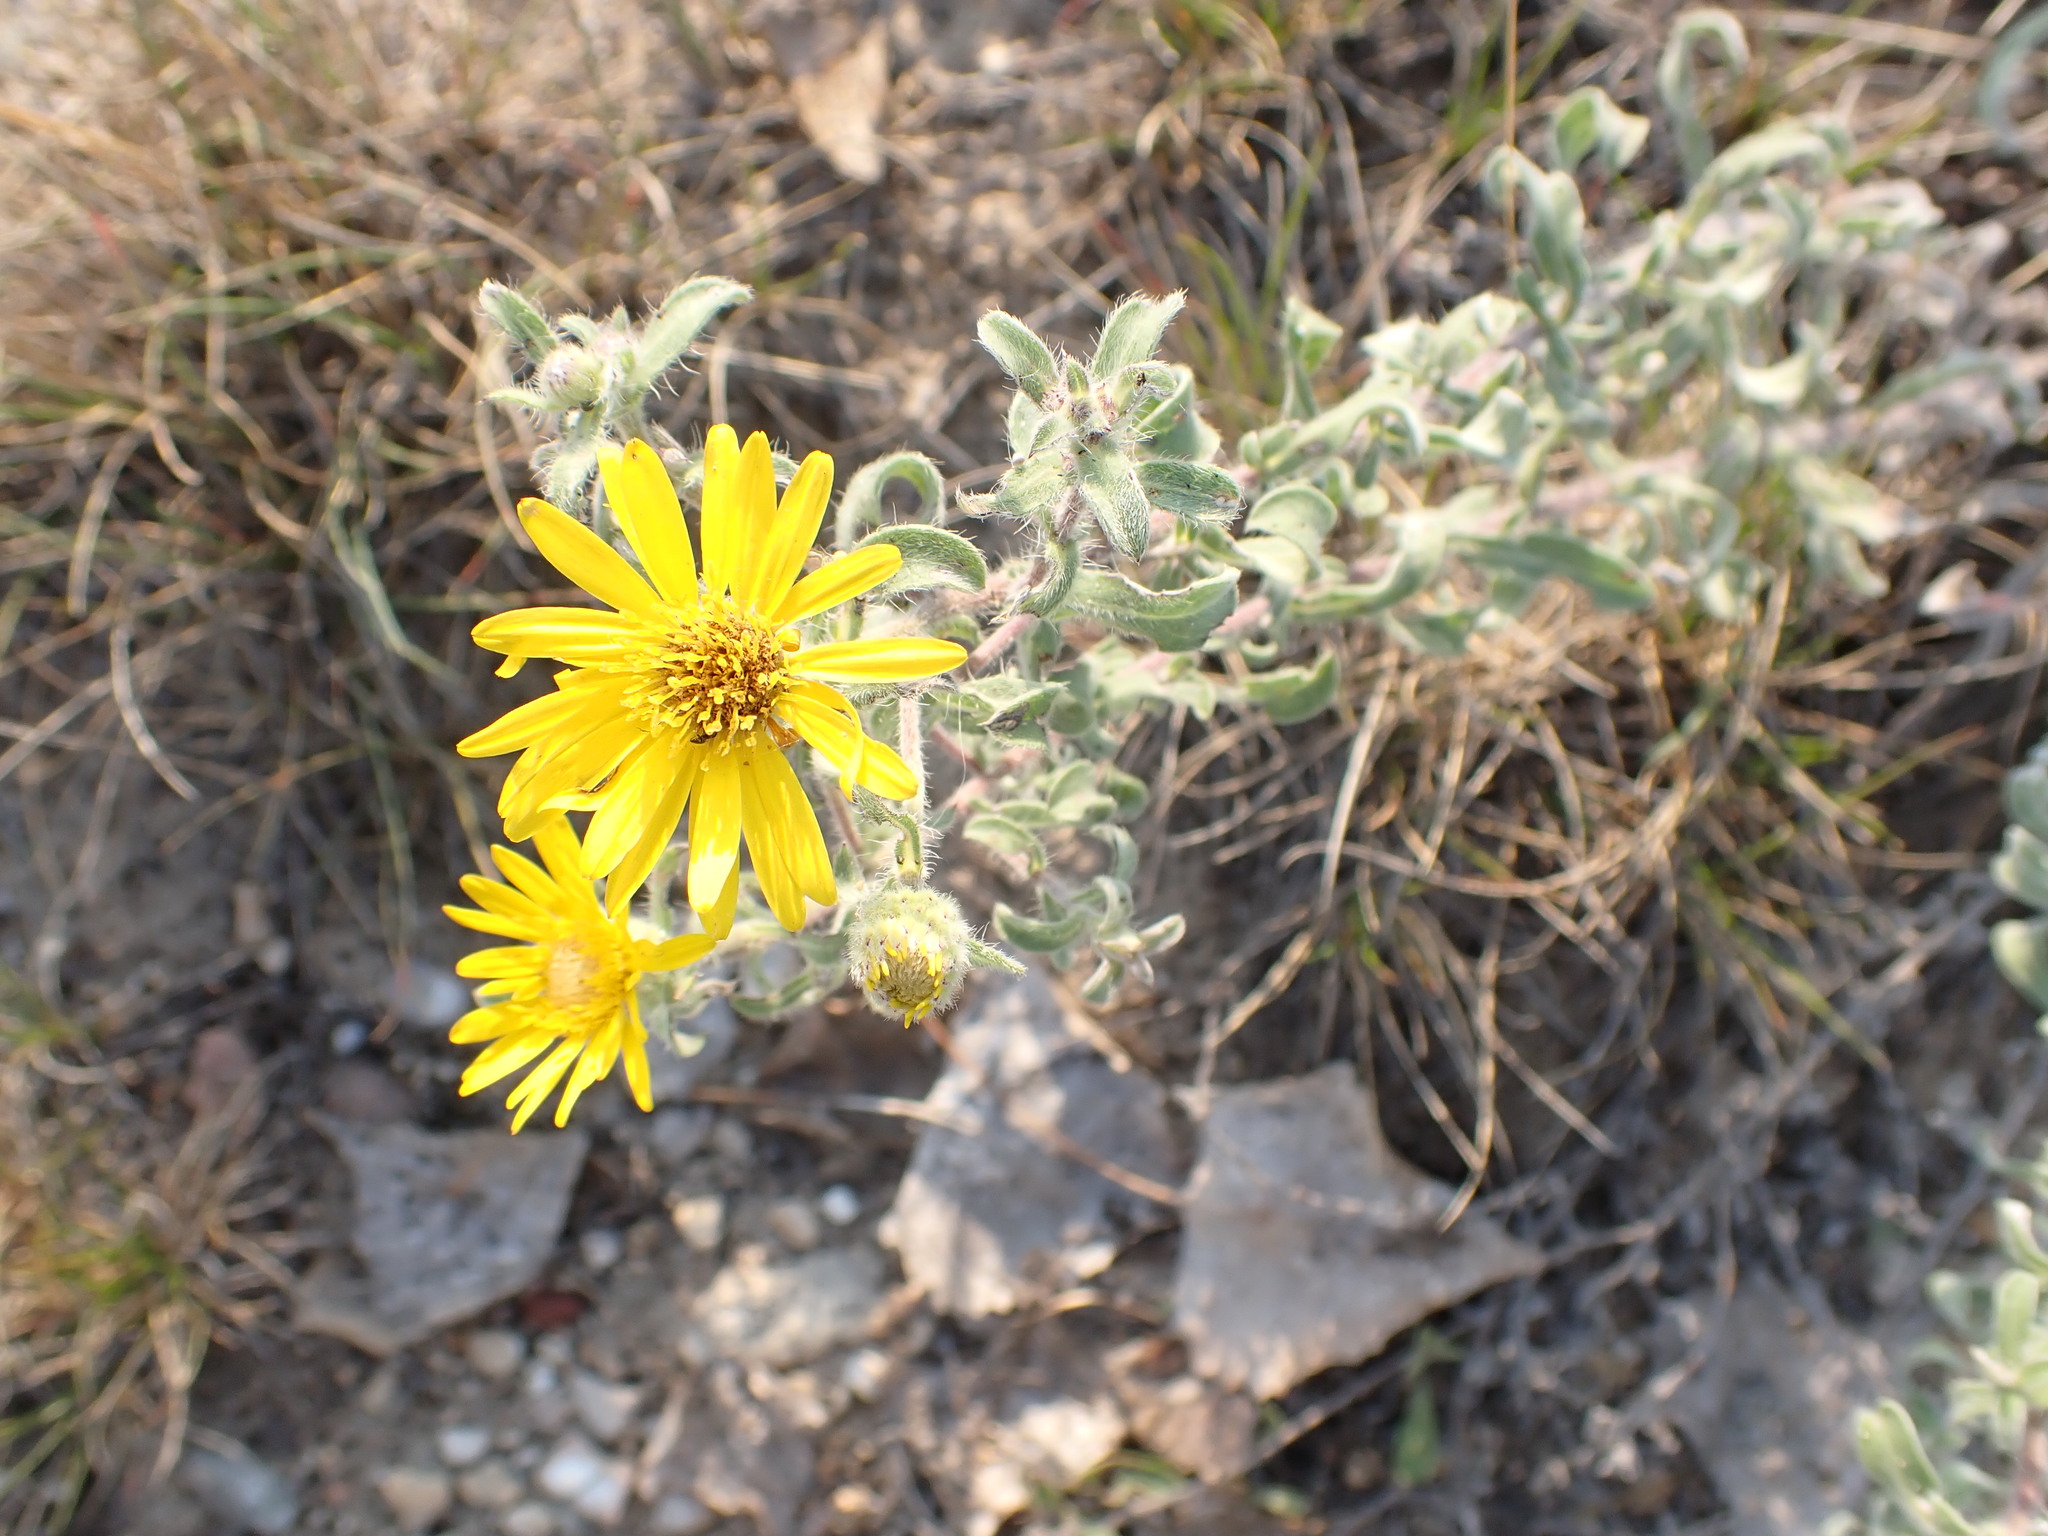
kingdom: Plantae
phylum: Tracheophyta
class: Magnoliopsida
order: Asterales
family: Asteraceae
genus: Heterotheca
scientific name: Heterotheca villosa
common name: Hairy false goldenaster
